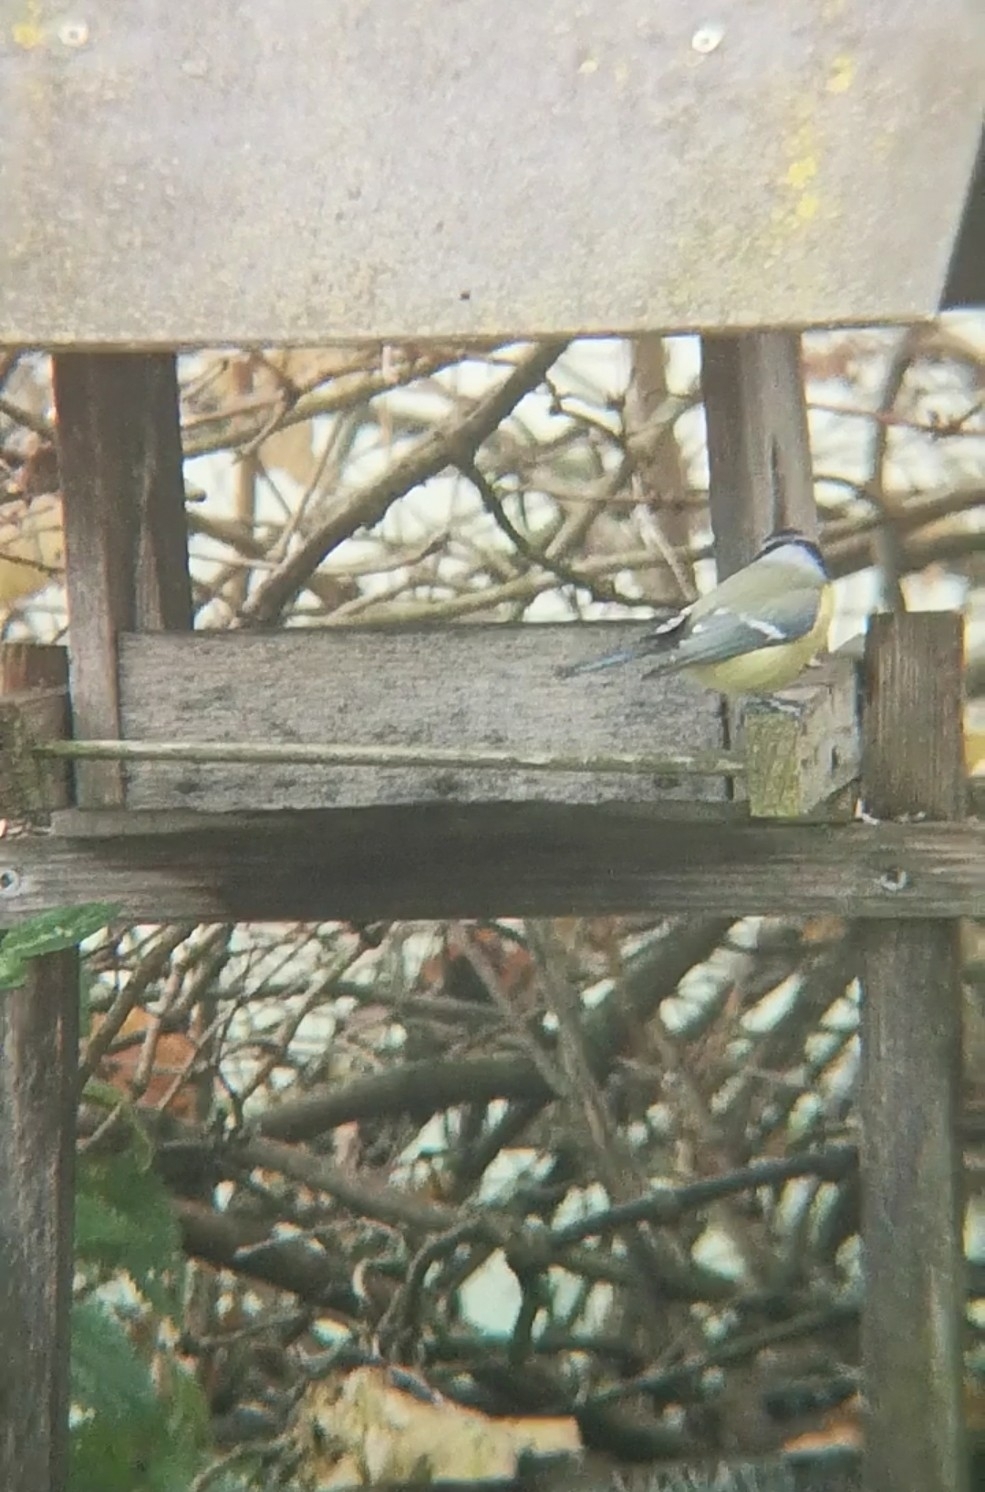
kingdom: Animalia
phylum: Chordata
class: Aves
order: Passeriformes
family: Paridae
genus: Cyanistes
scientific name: Cyanistes caeruleus
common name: Eurasian blue tit
